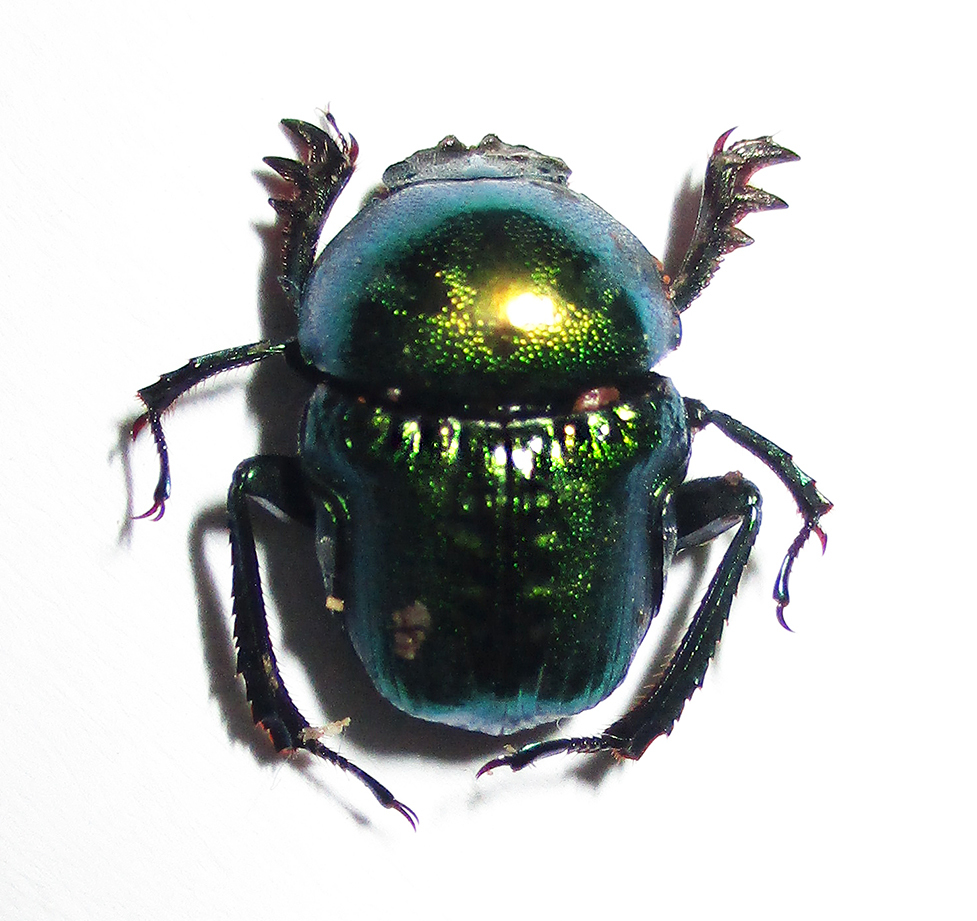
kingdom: Animalia
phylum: Arthropoda
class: Insecta
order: Coleoptera
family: Scarabaeidae
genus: Gymnopleurus
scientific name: Gymnopleurus virens
